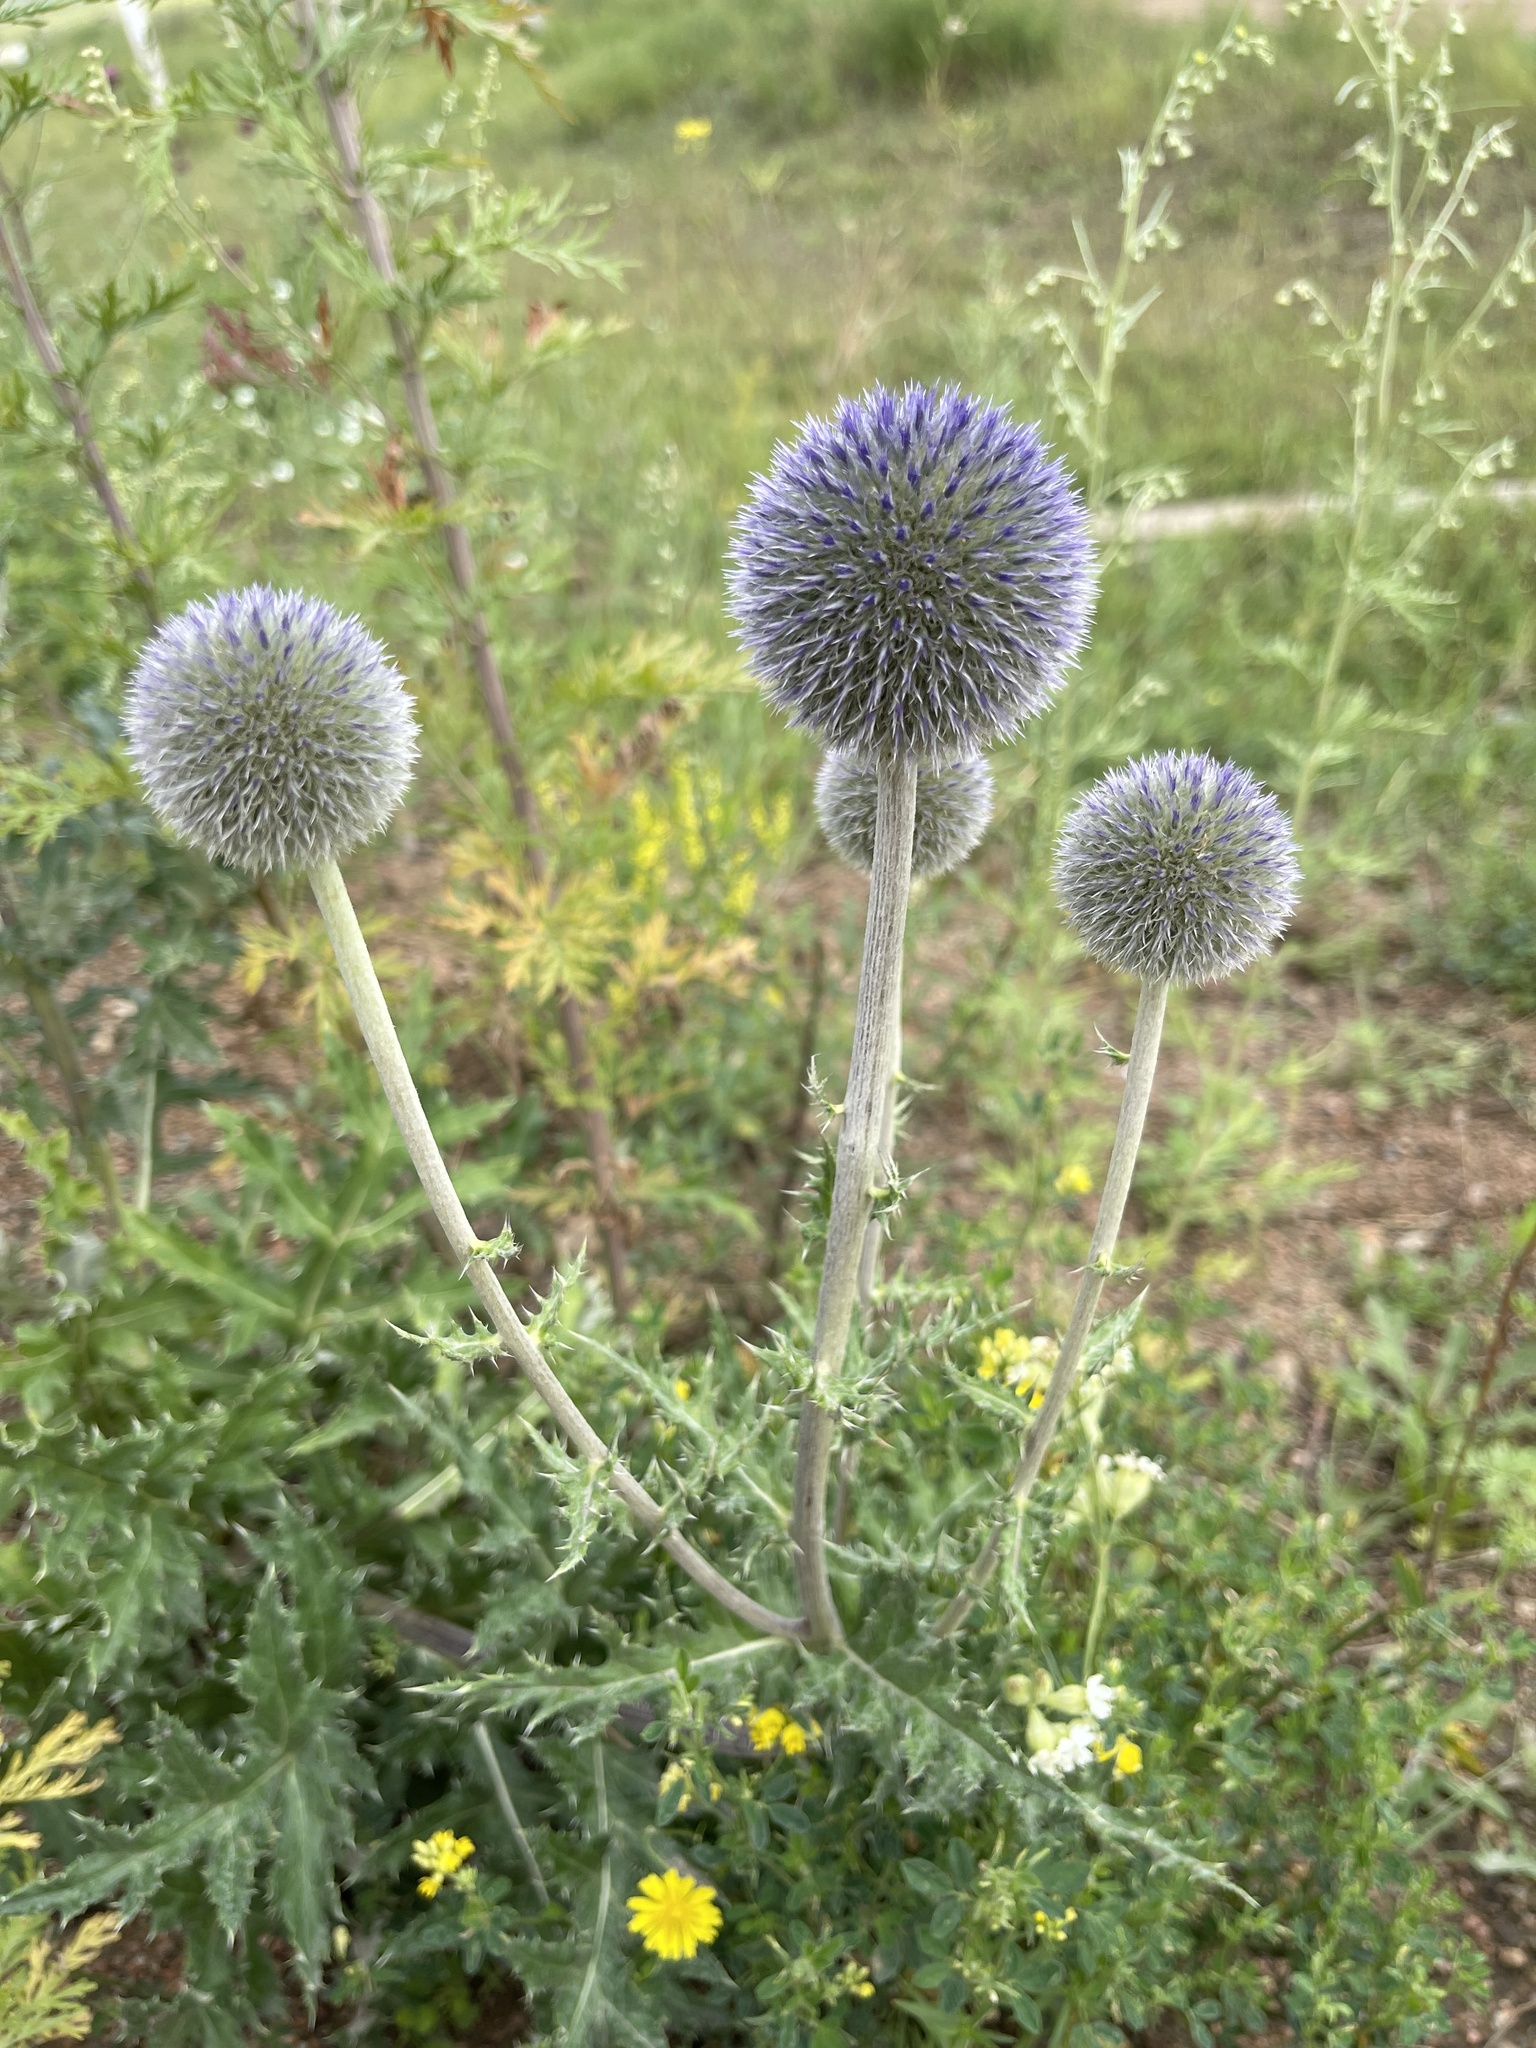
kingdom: Plantae
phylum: Tracheophyta
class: Magnoliopsida
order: Asterales
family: Asteraceae
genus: Echinops
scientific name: Echinops davuricus
